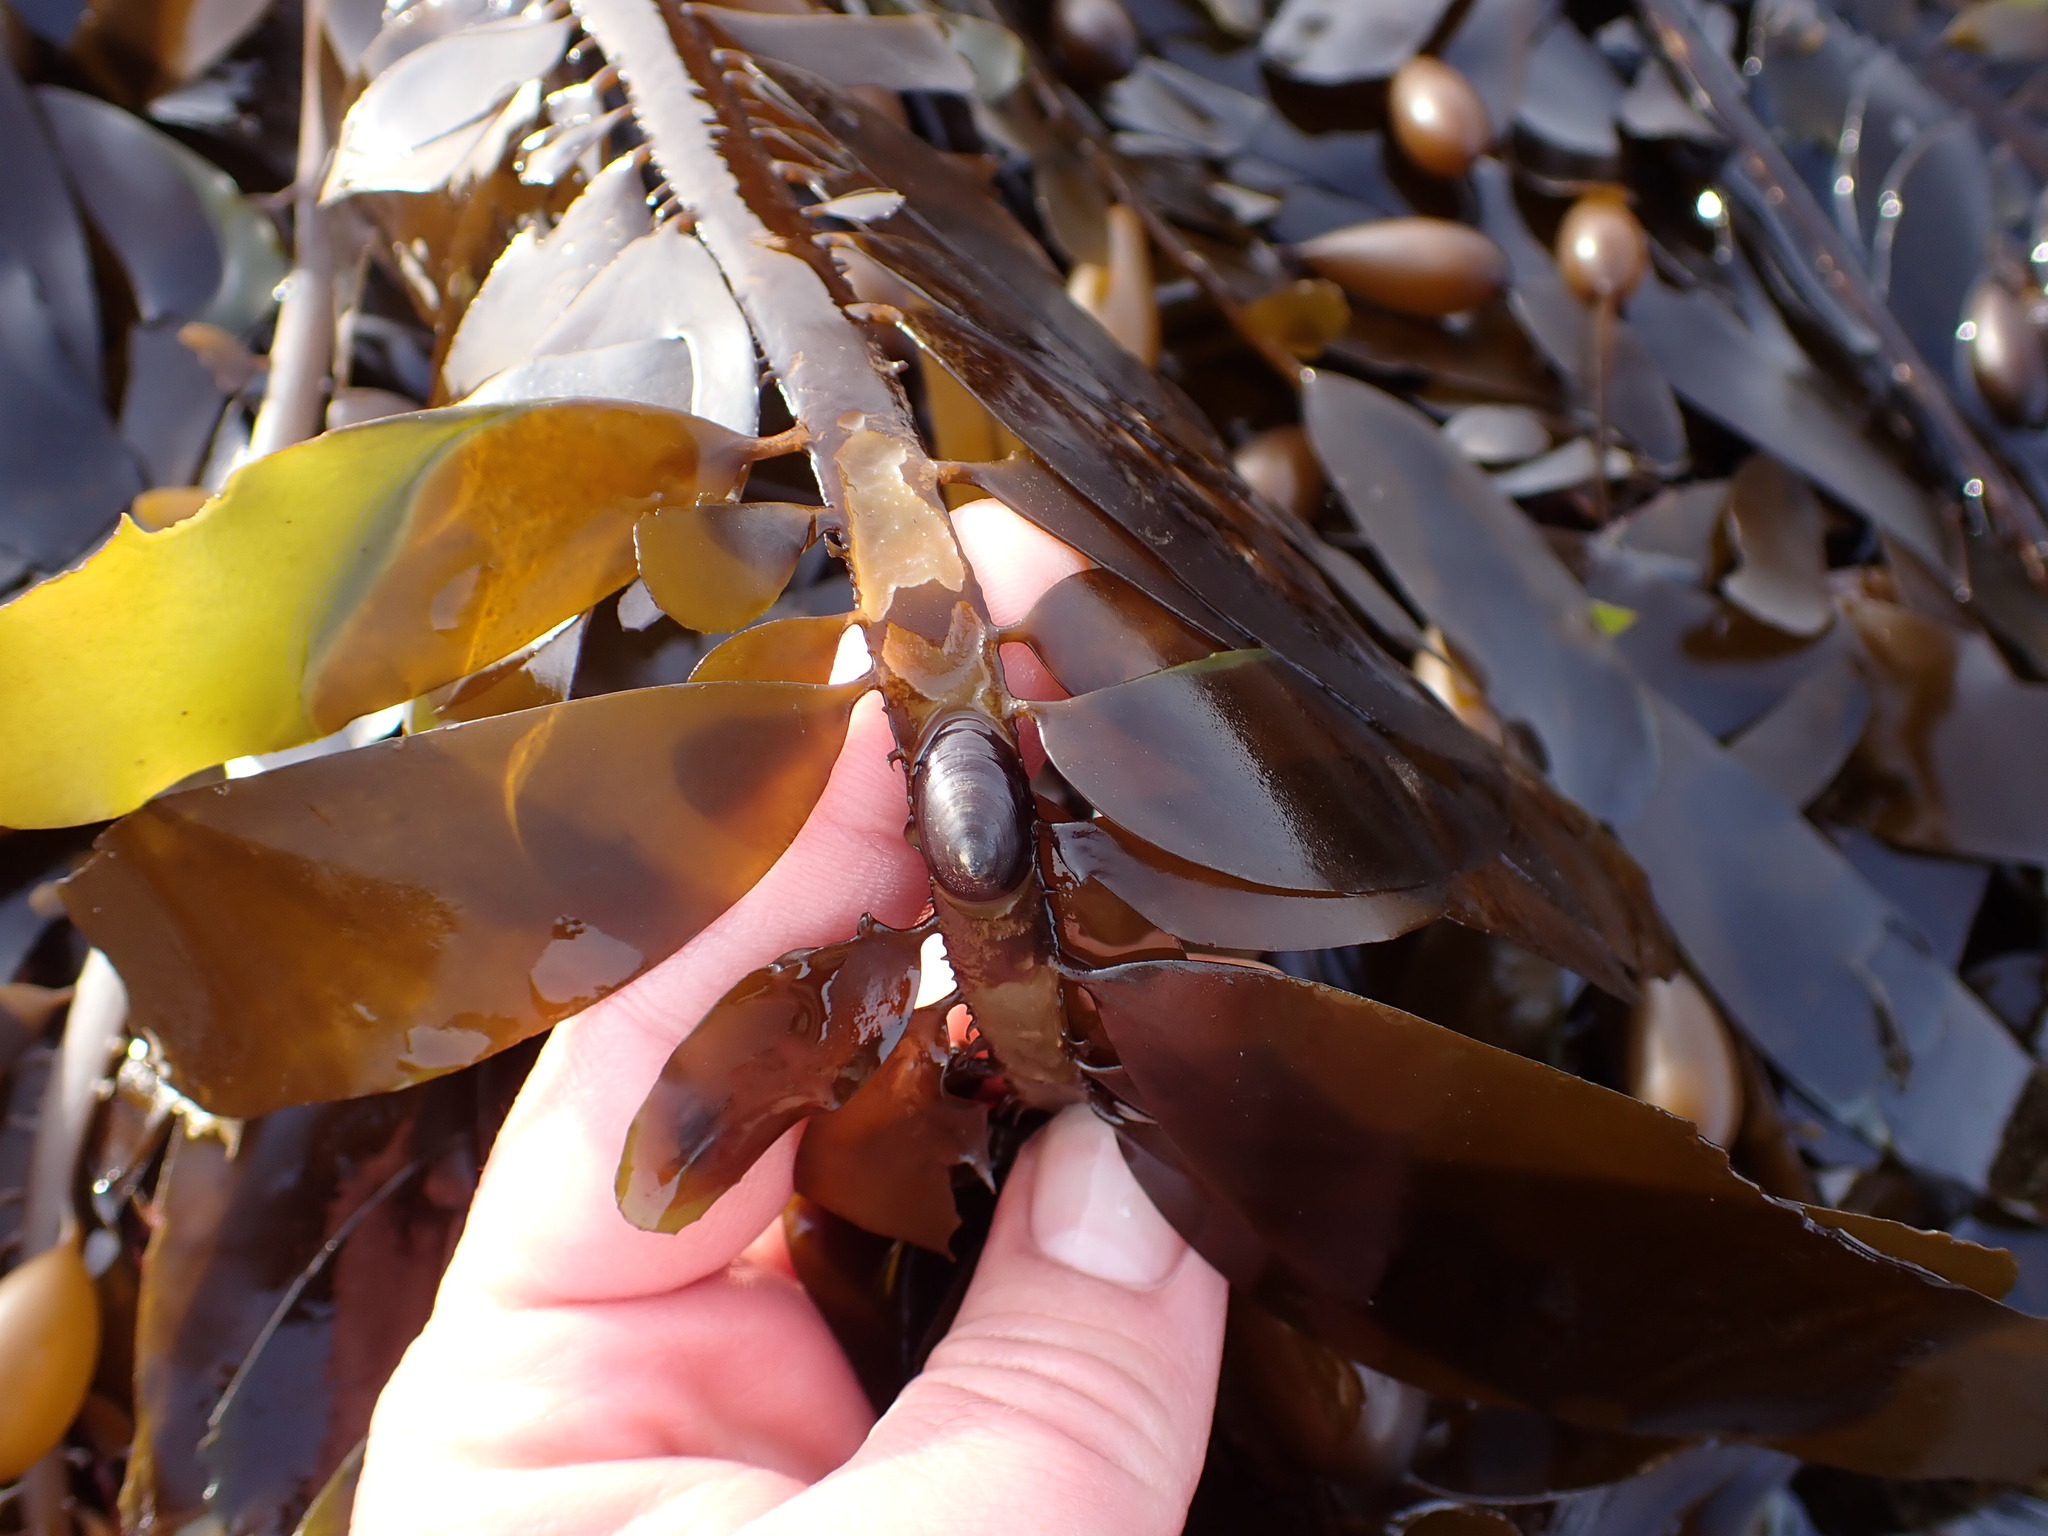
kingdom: Animalia
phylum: Mollusca
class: Gastropoda
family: Lottiidae
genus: Discurria
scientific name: Discurria insessa
